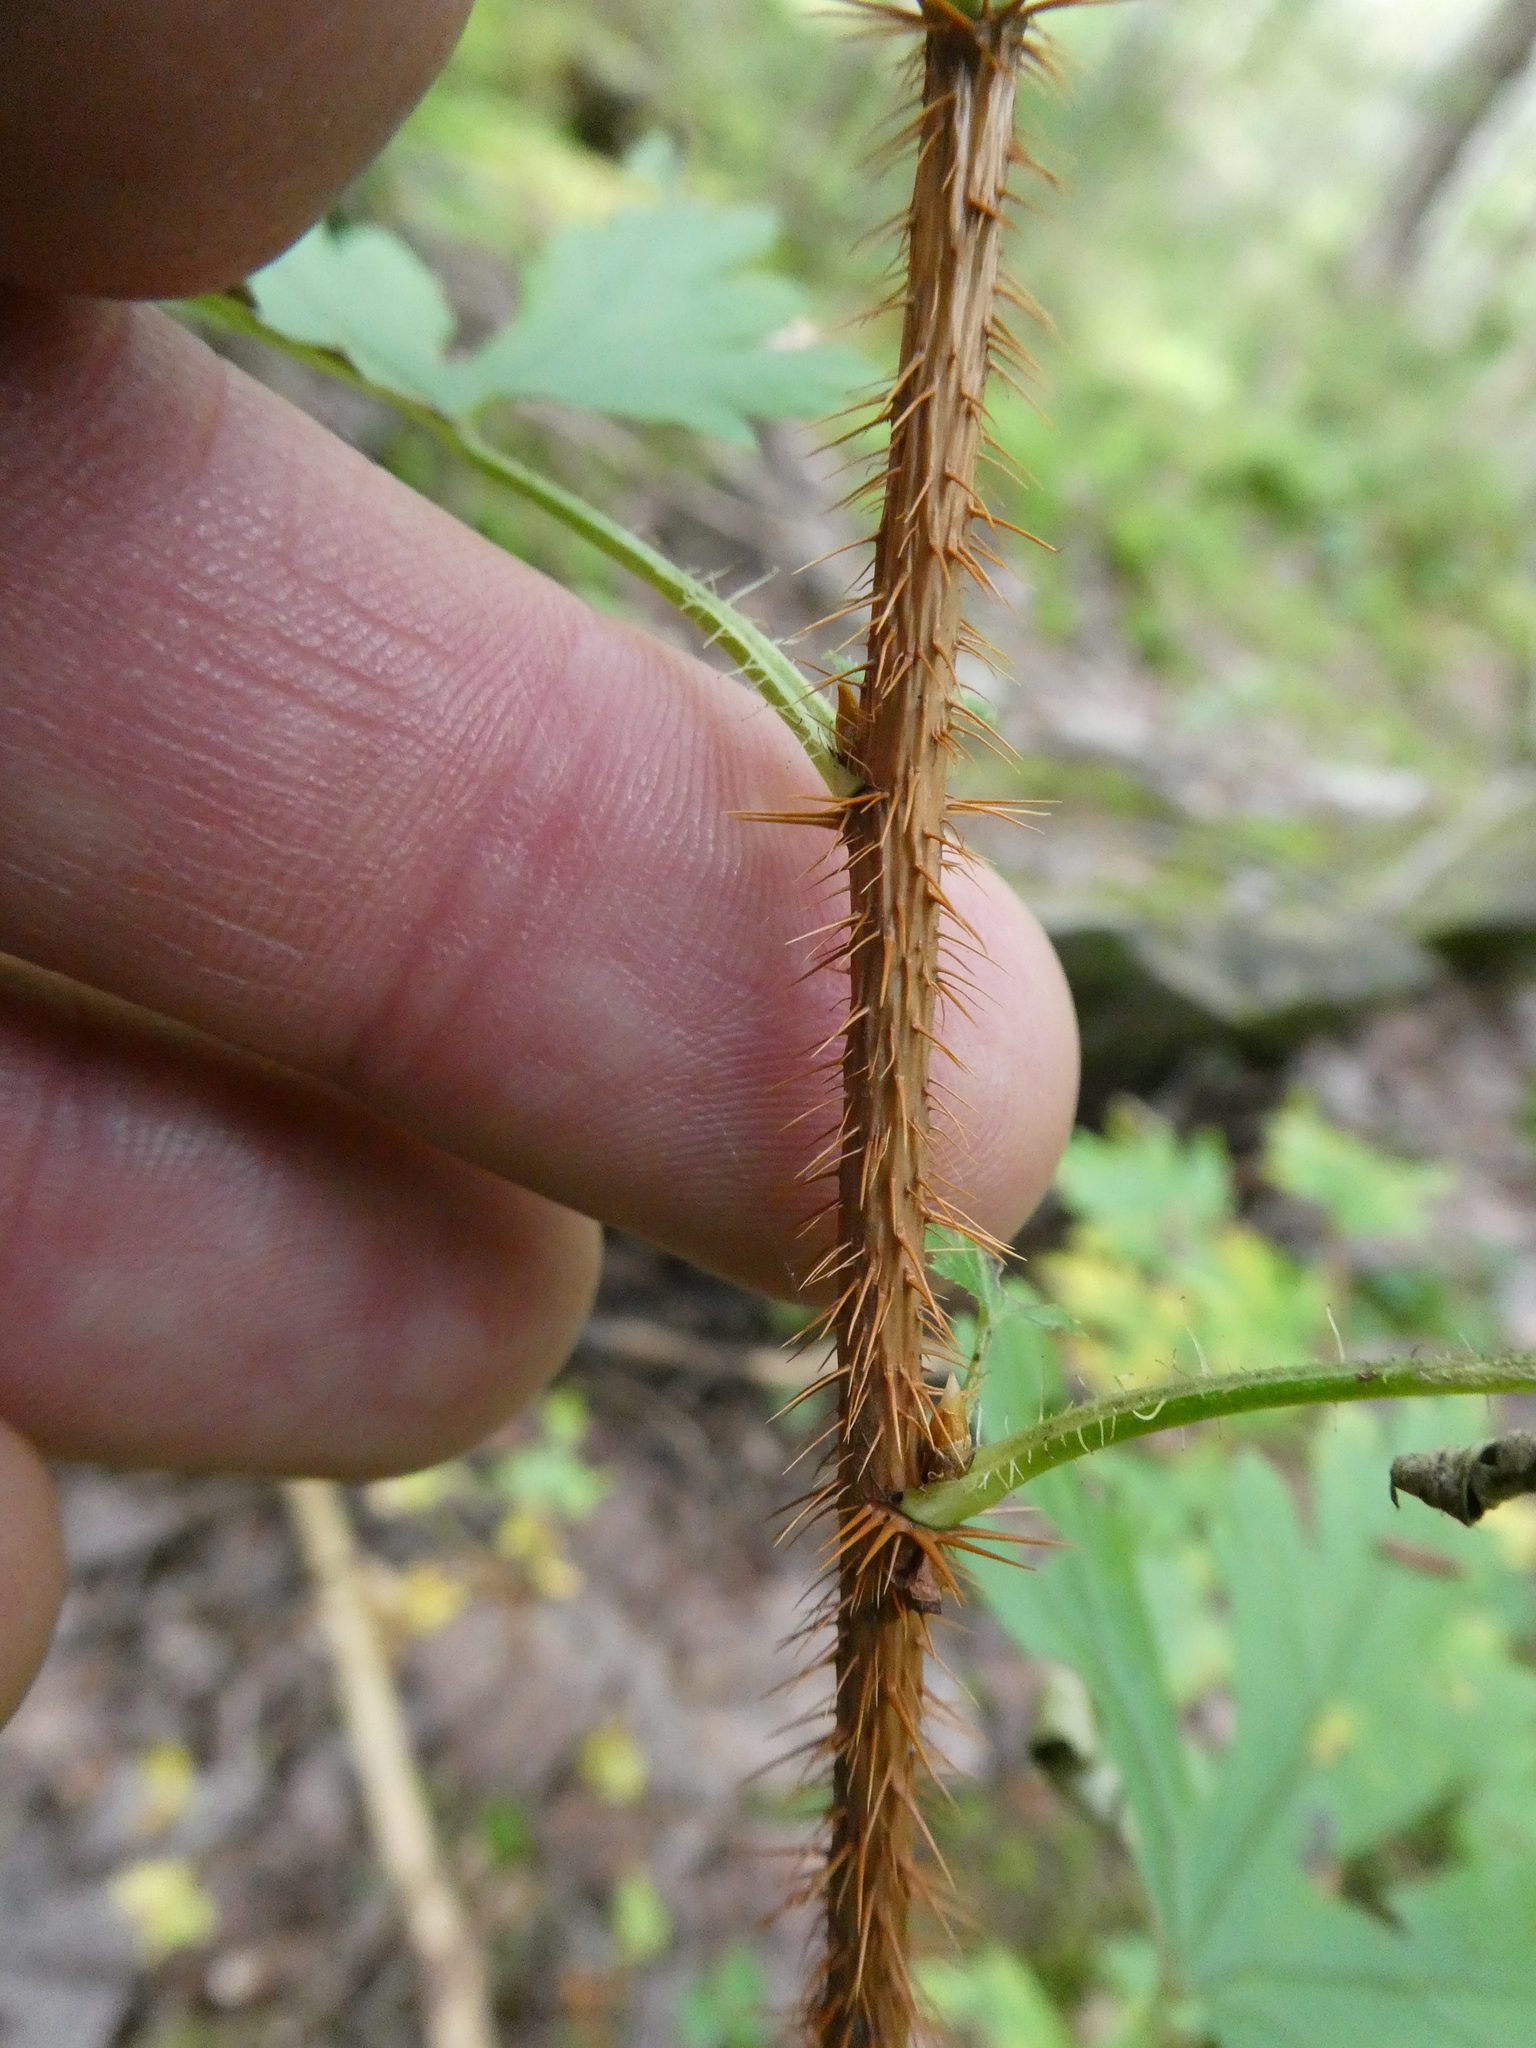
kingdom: Plantae
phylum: Tracheophyta
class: Magnoliopsida
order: Saxifragales
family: Grossulariaceae
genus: Ribes
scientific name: Ribes lacustre
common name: Black gooseberry
